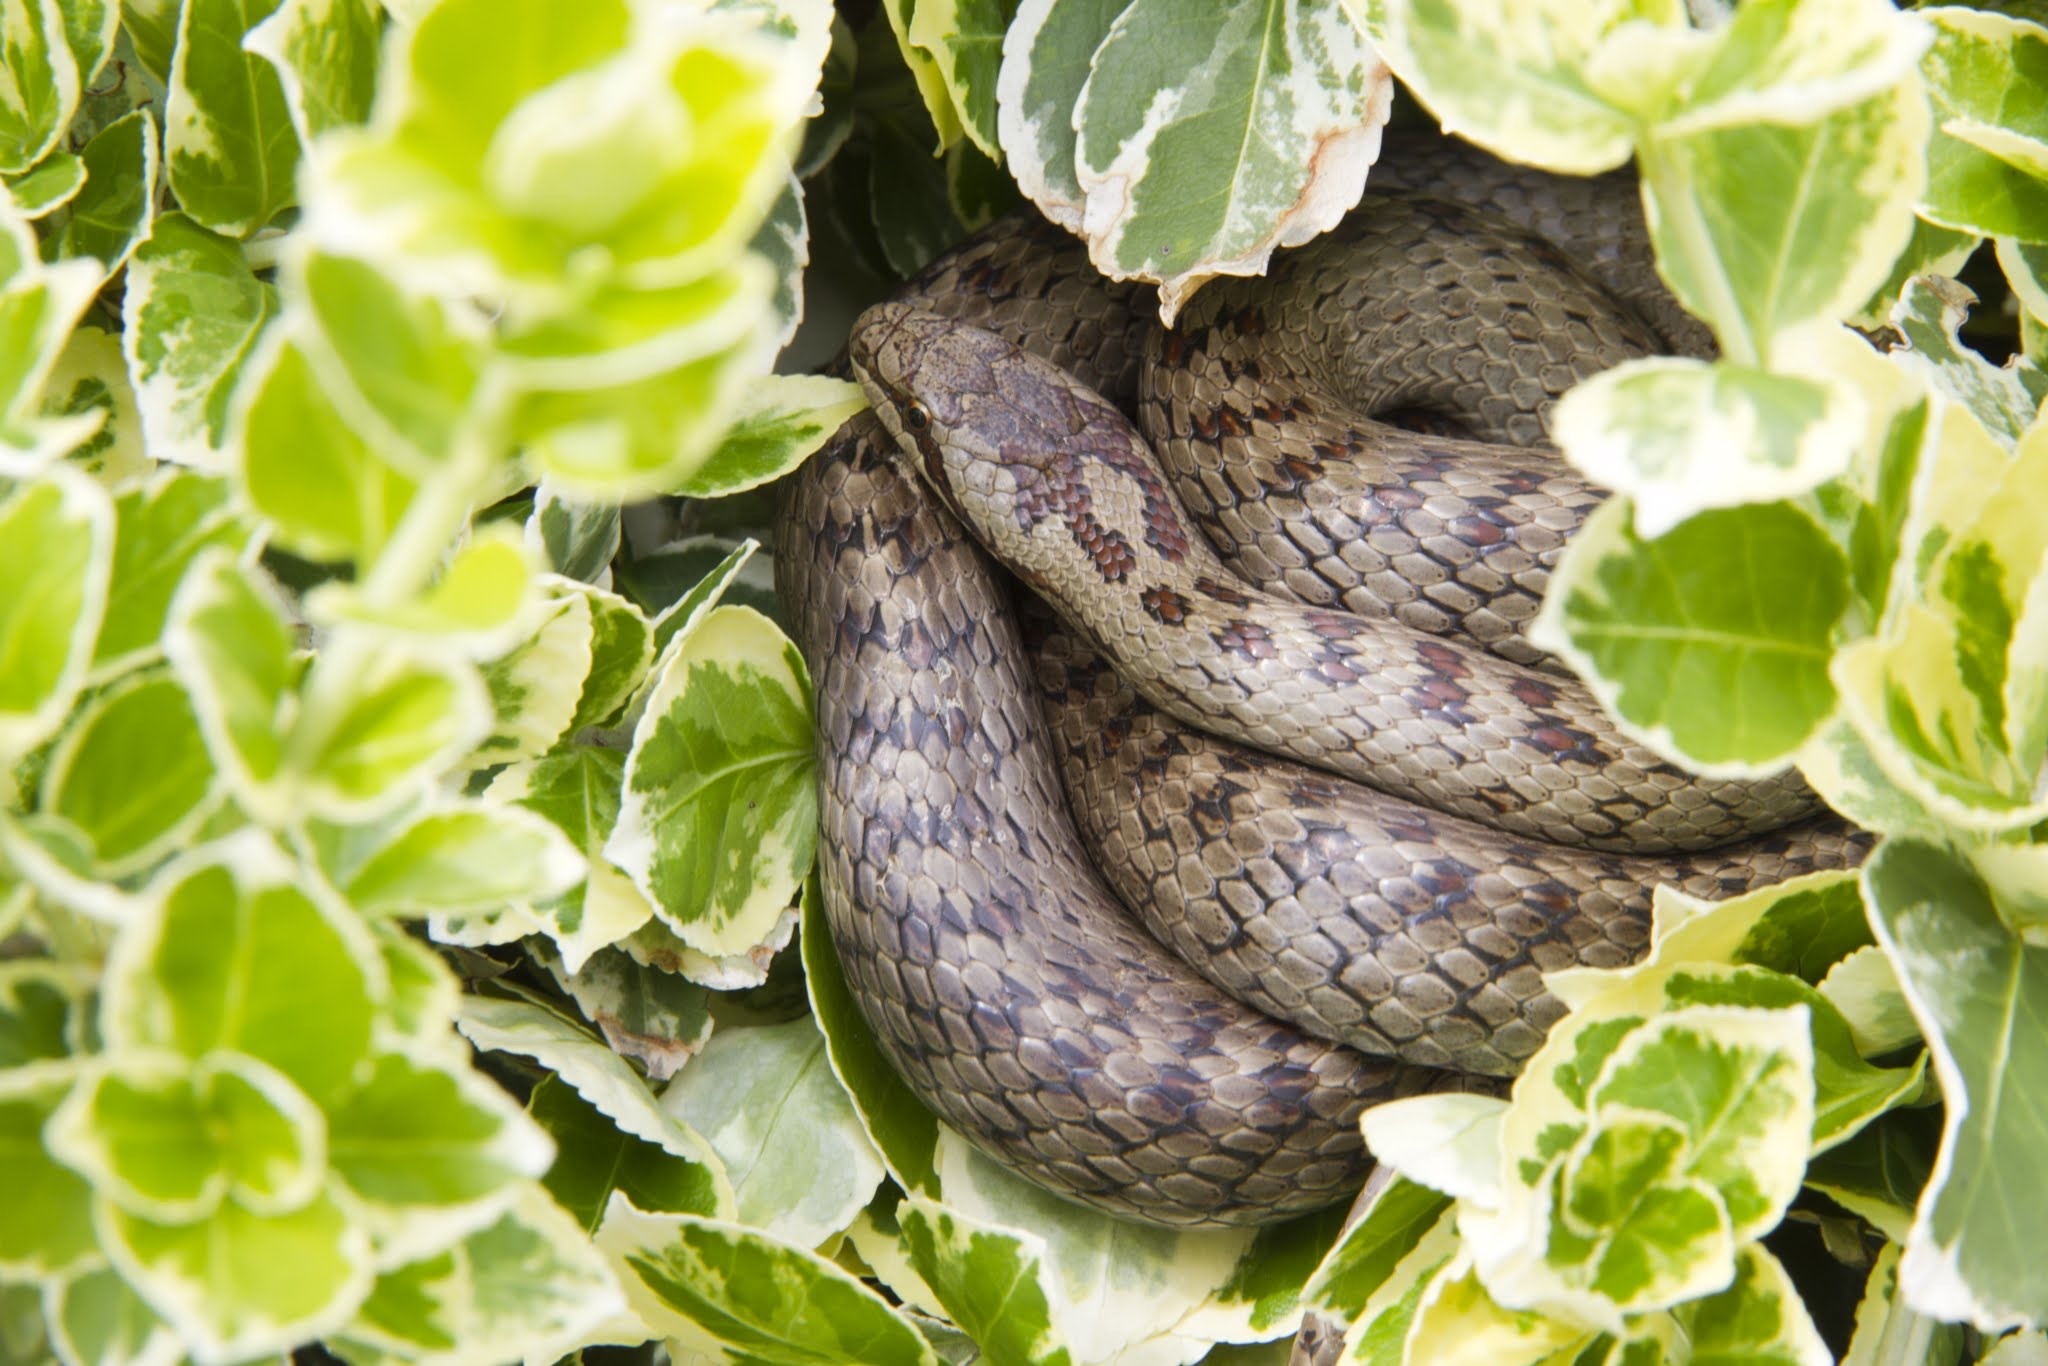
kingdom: Animalia
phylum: Chordata
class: Squamata
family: Colubridae
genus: Coronella
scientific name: Coronella austriaca
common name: Smooth snake
